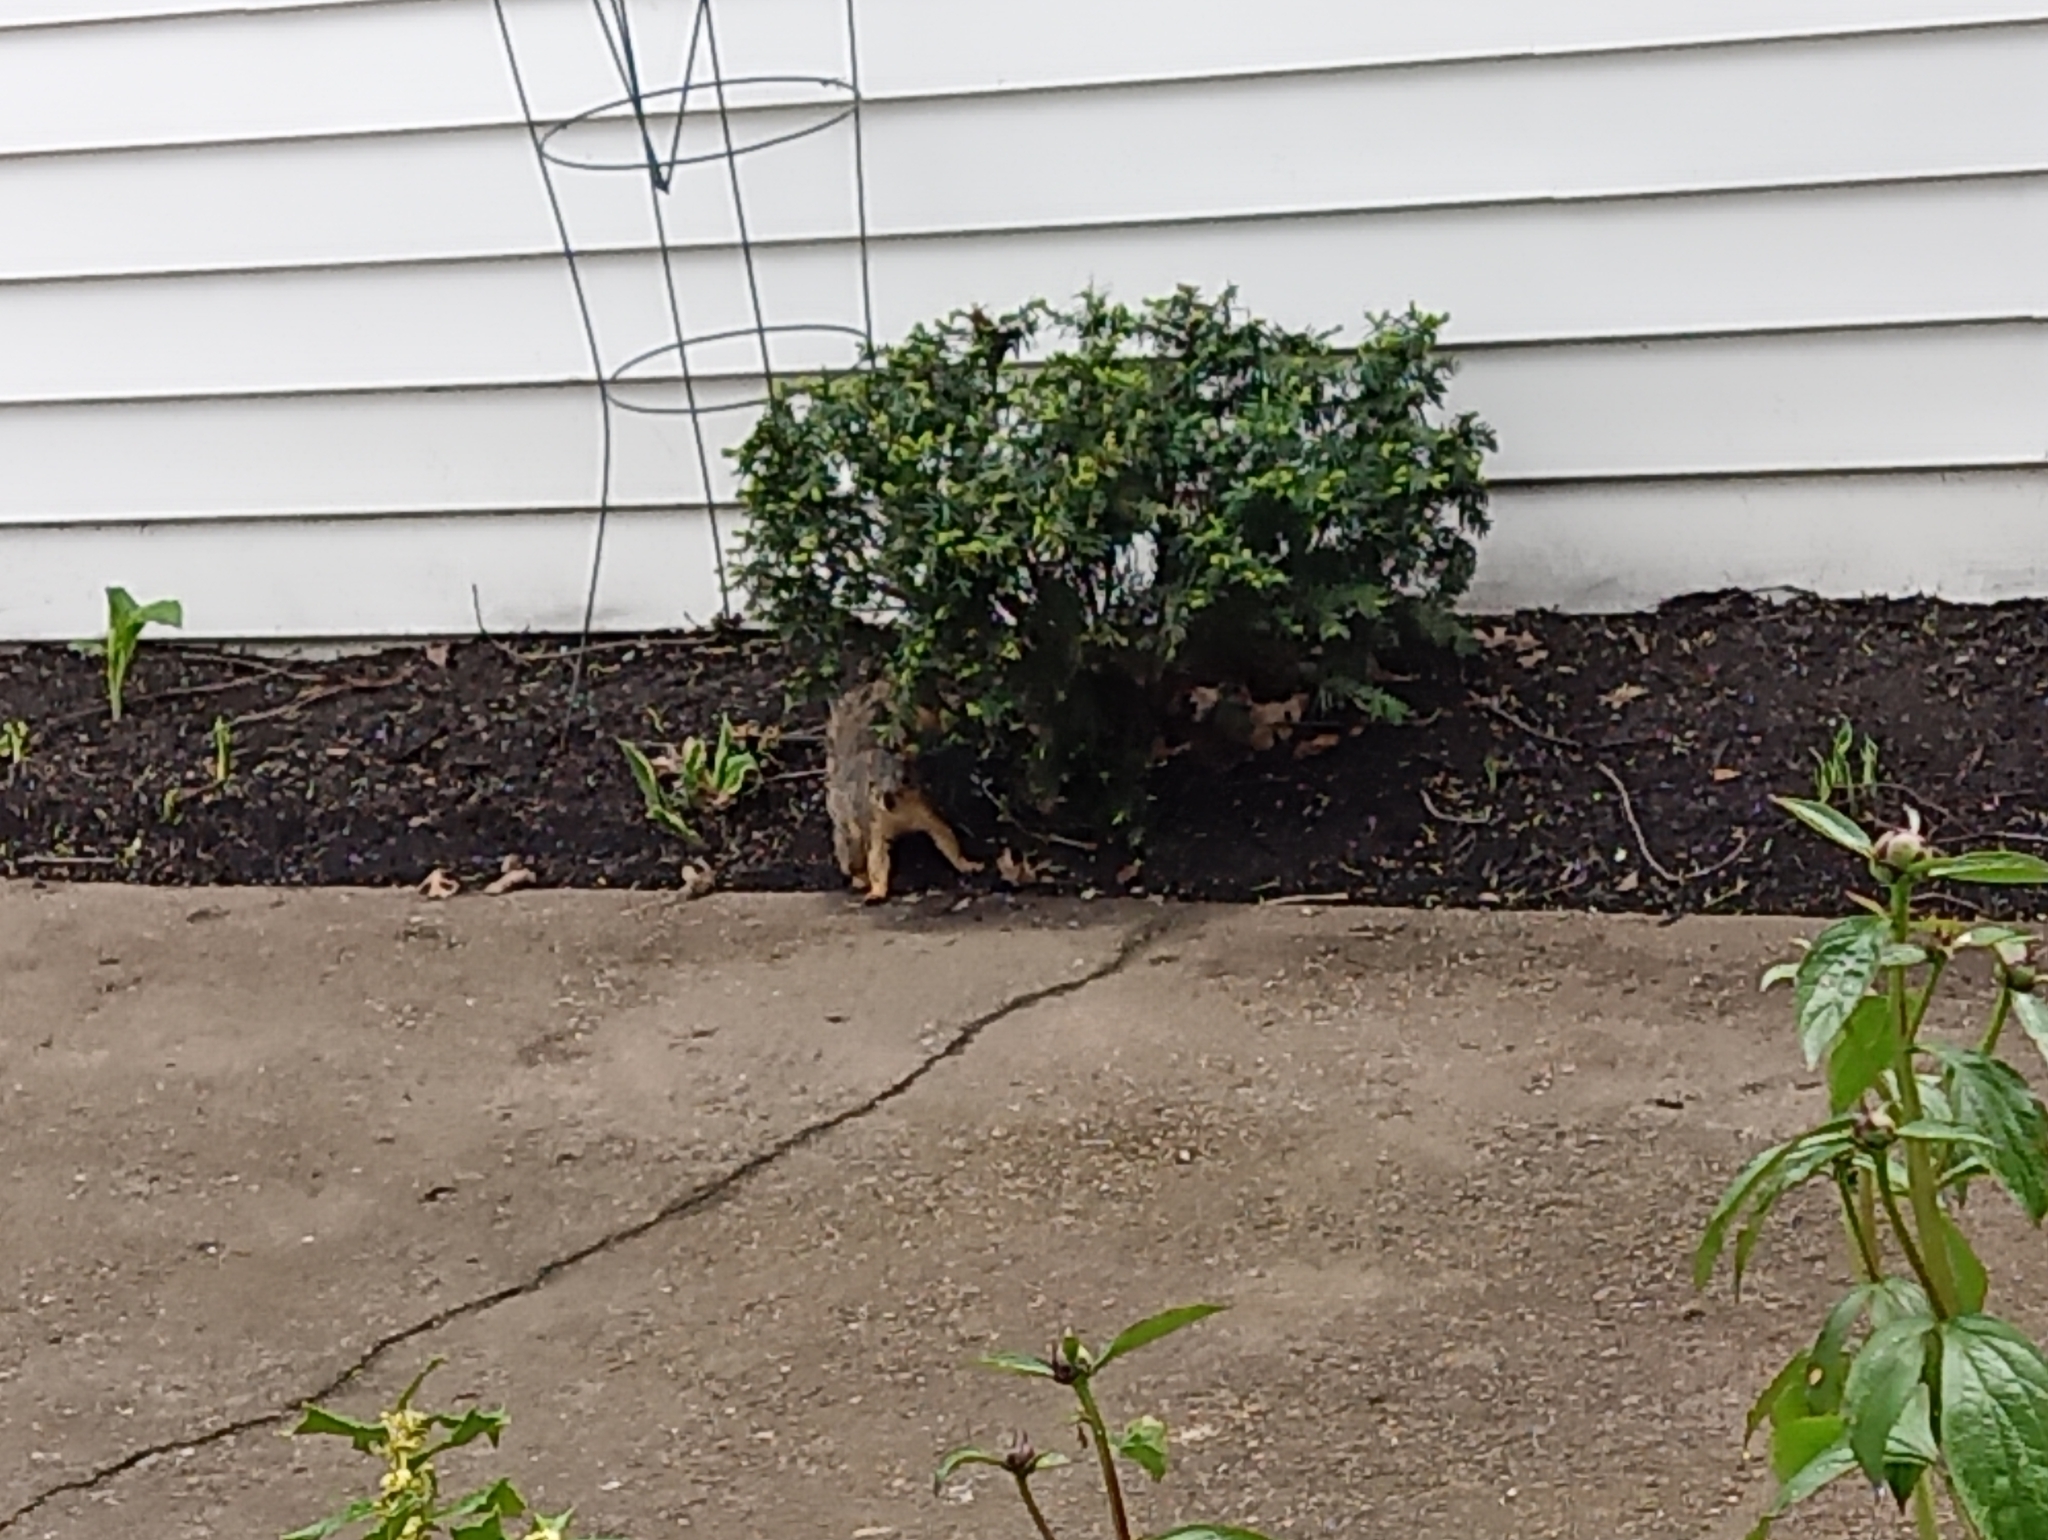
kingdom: Animalia
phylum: Chordata
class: Mammalia
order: Rodentia
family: Sciuridae
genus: Sciurus
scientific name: Sciurus niger
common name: Fox squirrel
